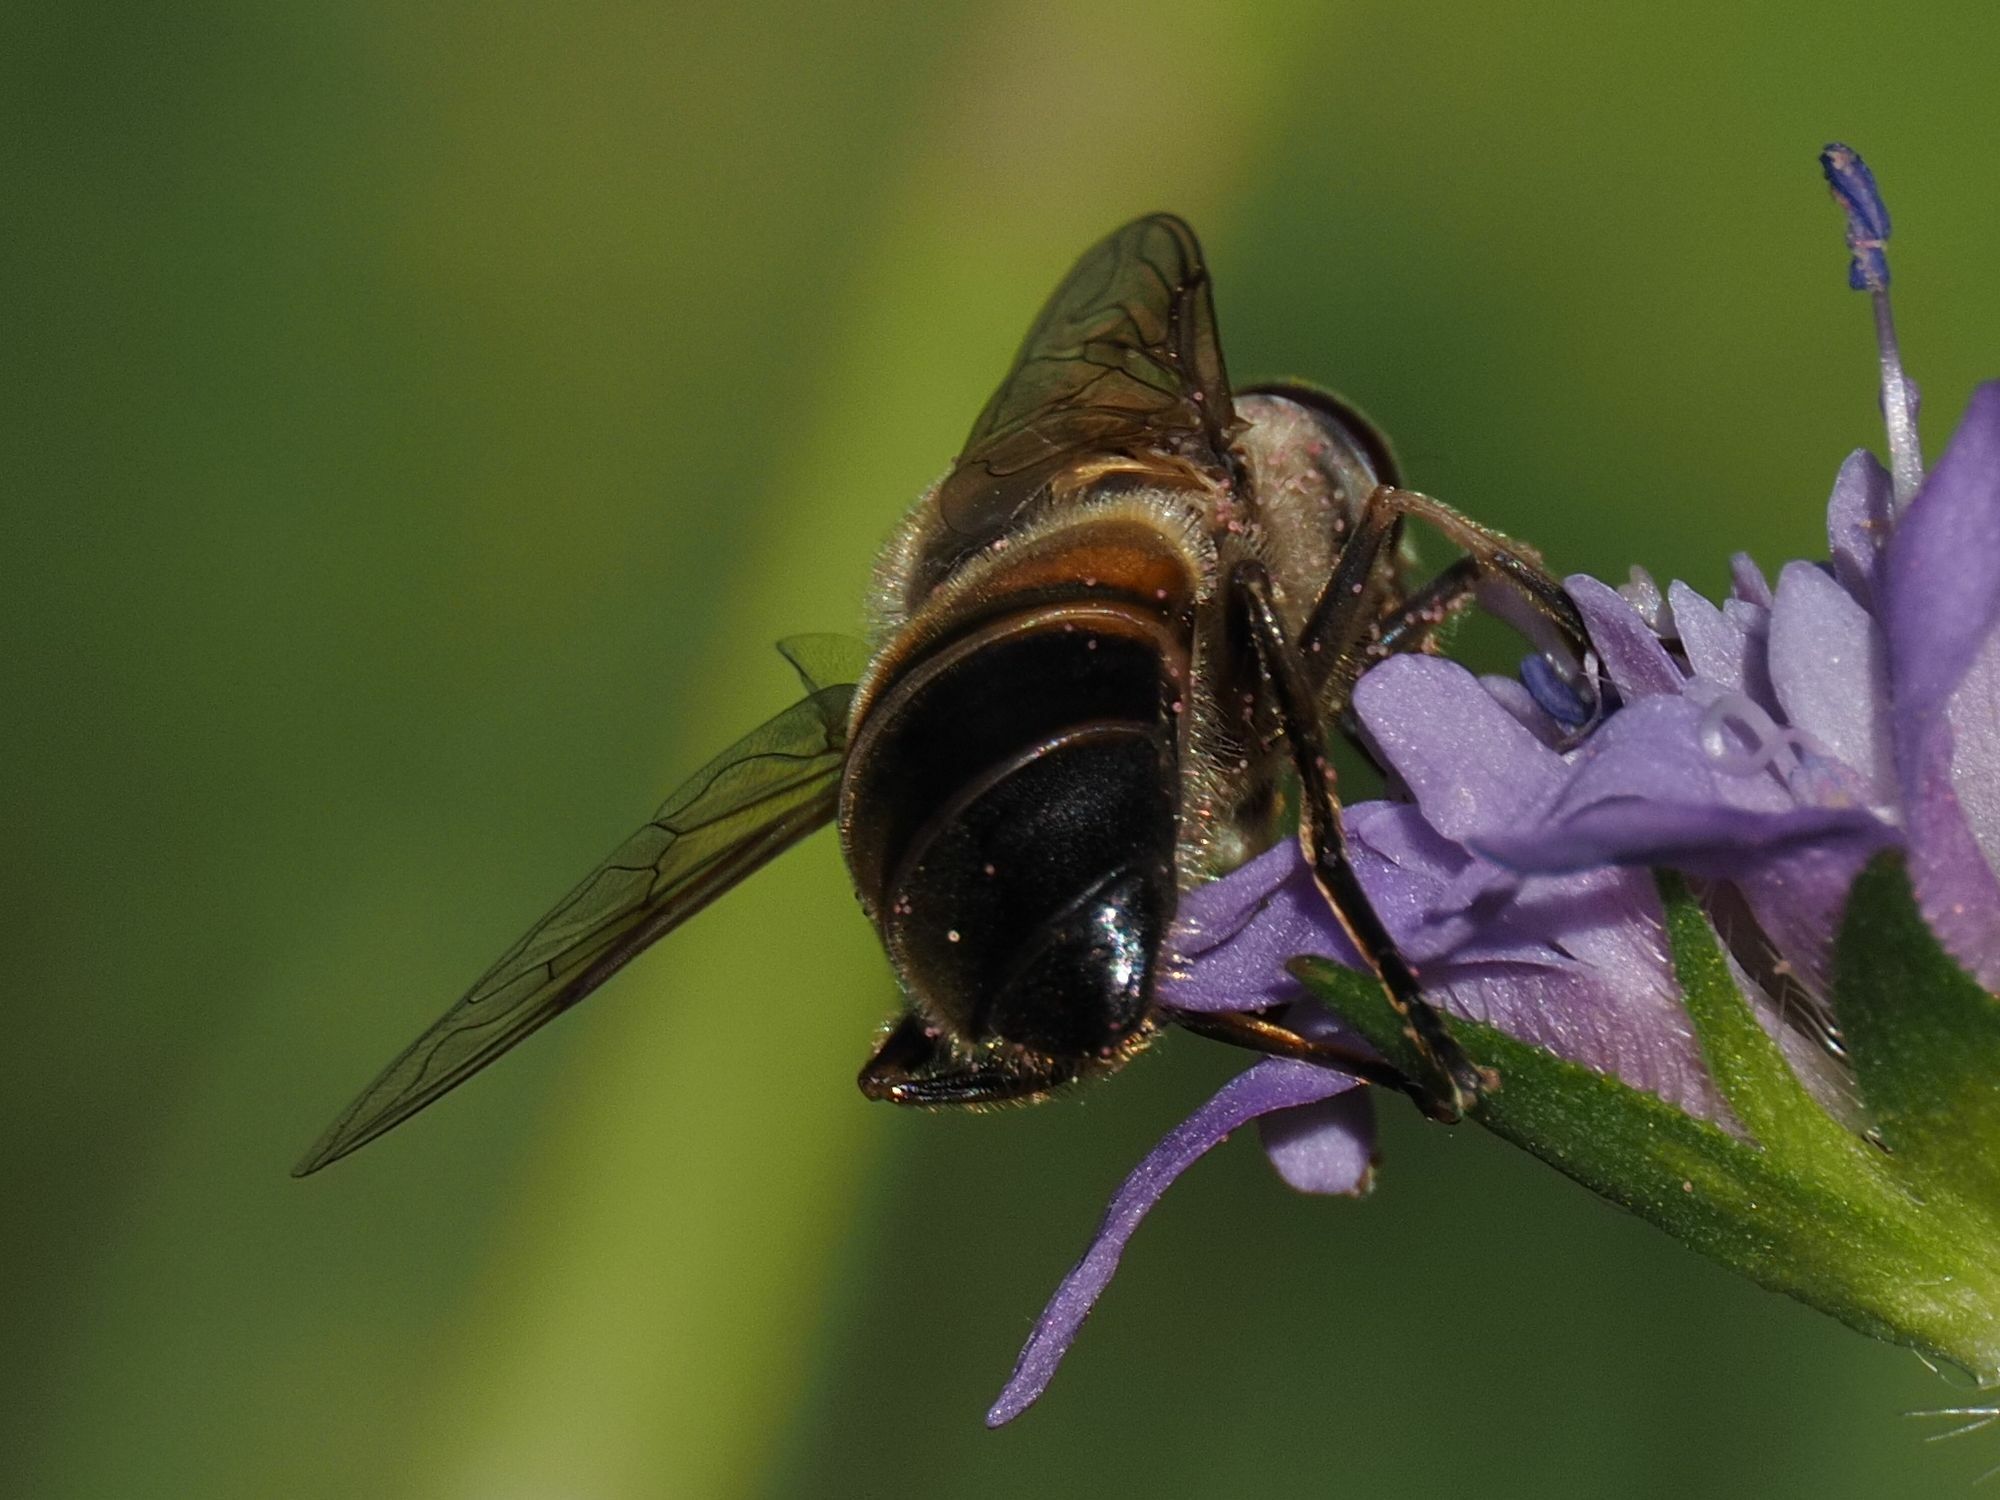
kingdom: Animalia
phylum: Arthropoda
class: Insecta
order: Diptera
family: Syrphidae
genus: Eristalis
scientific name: Eristalis tenax
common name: Drone fly
